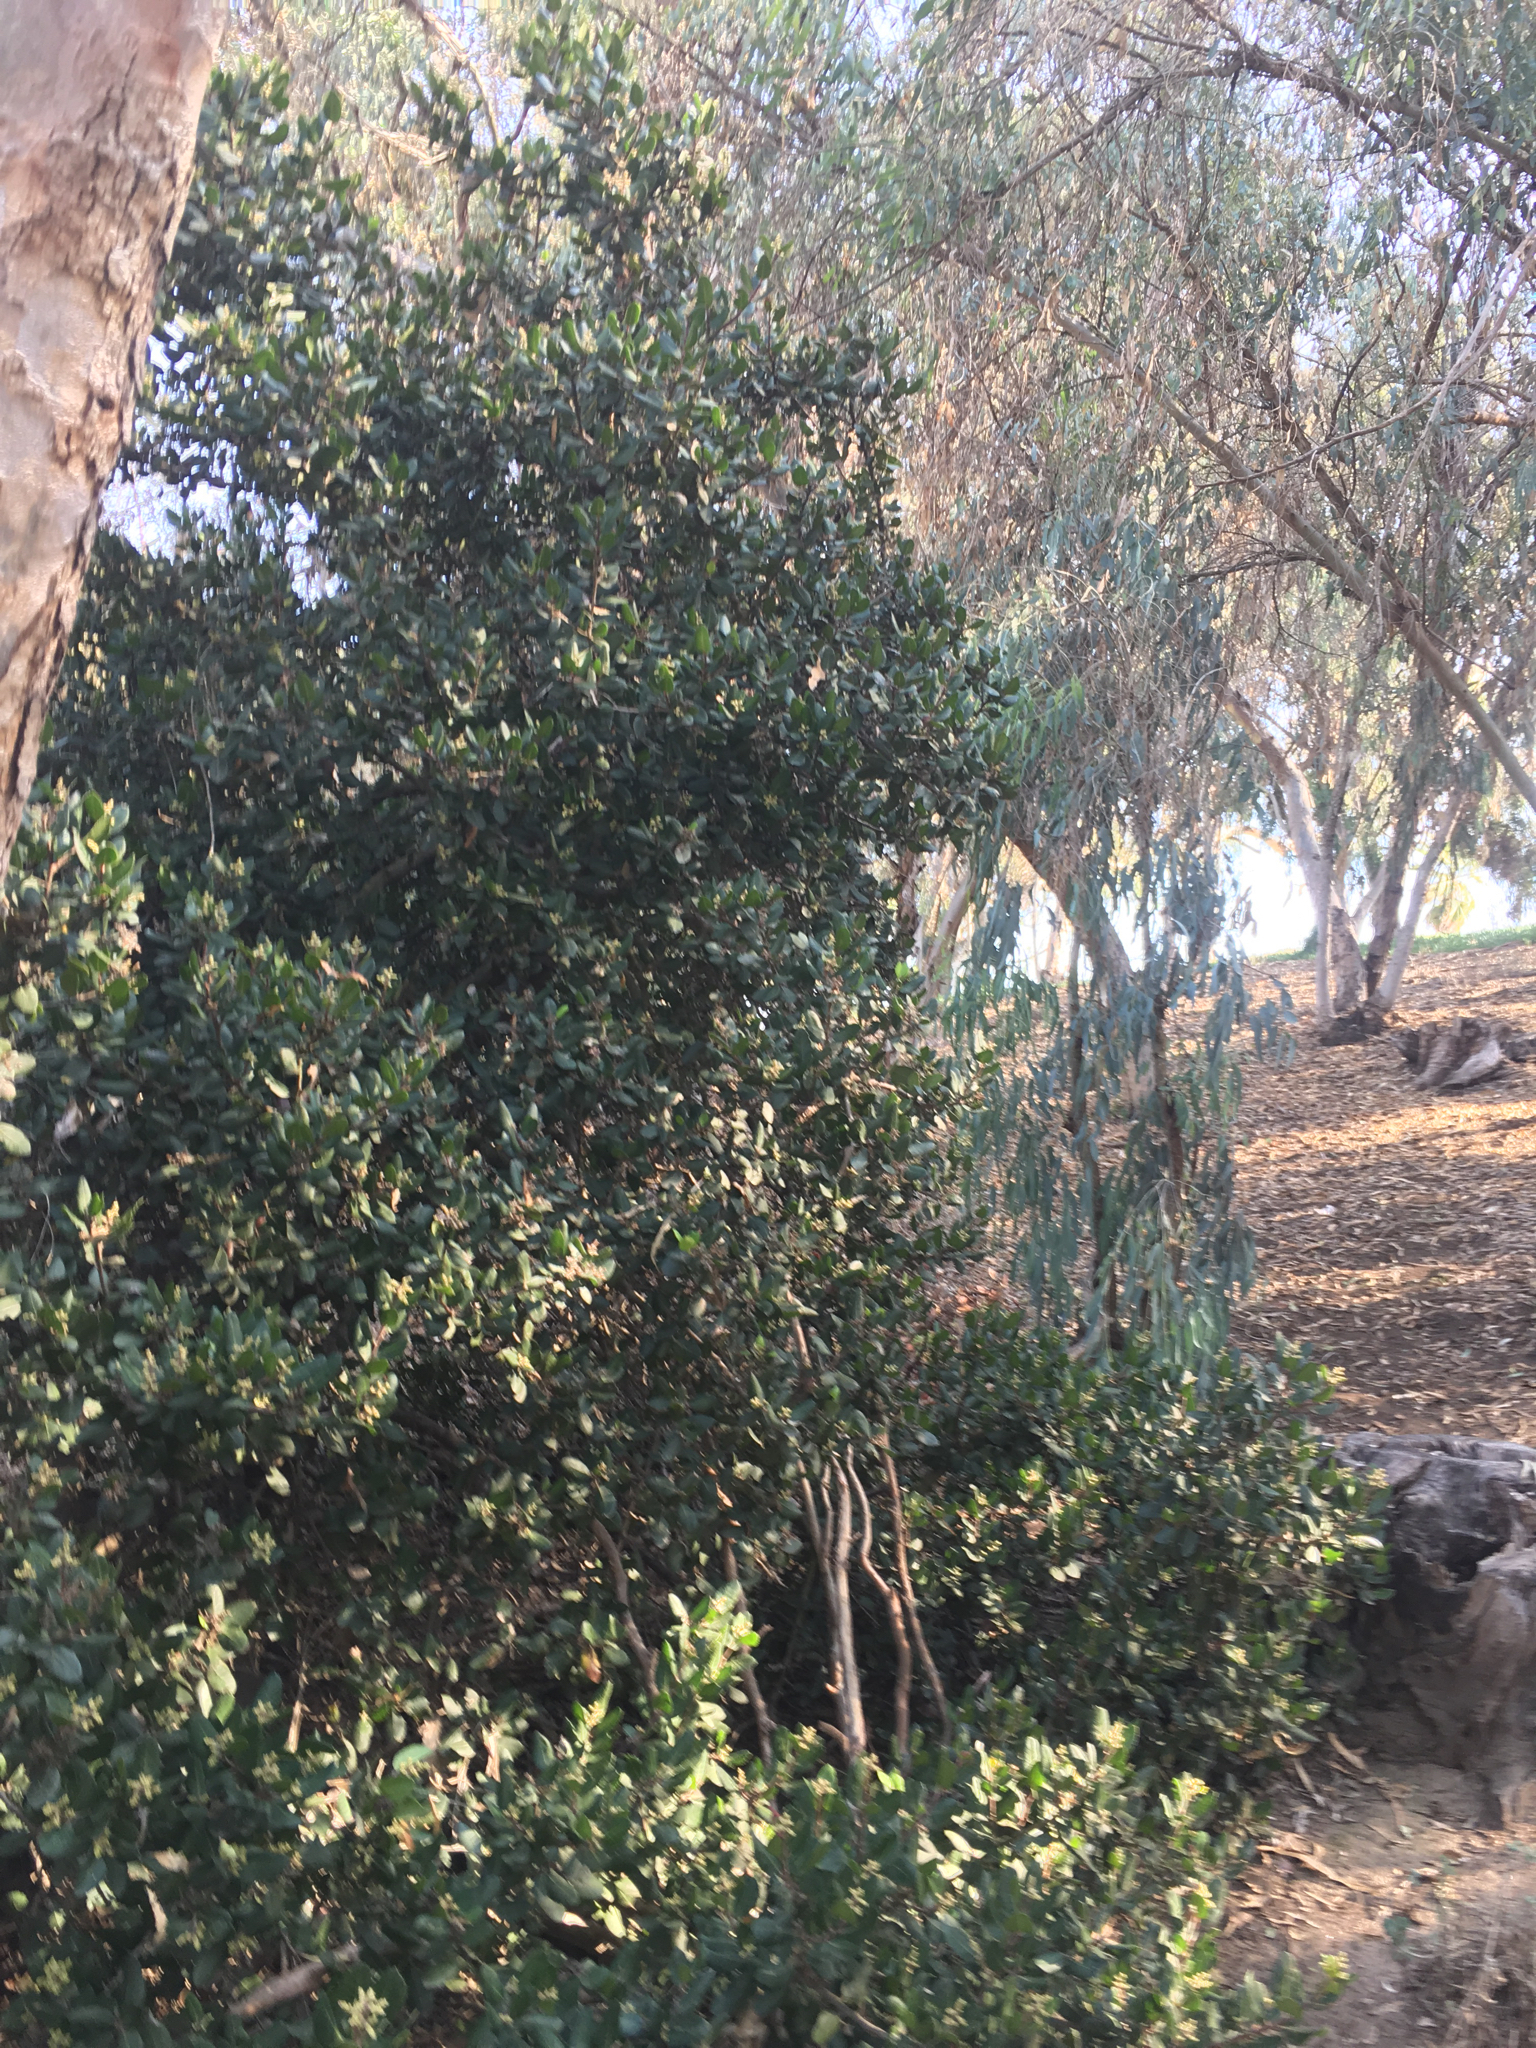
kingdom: Plantae
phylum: Tracheophyta
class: Magnoliopsida
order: Sapindales
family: Anacardiaceae
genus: Rhus
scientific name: Rhus integrifolia
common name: Lemonade sumac
